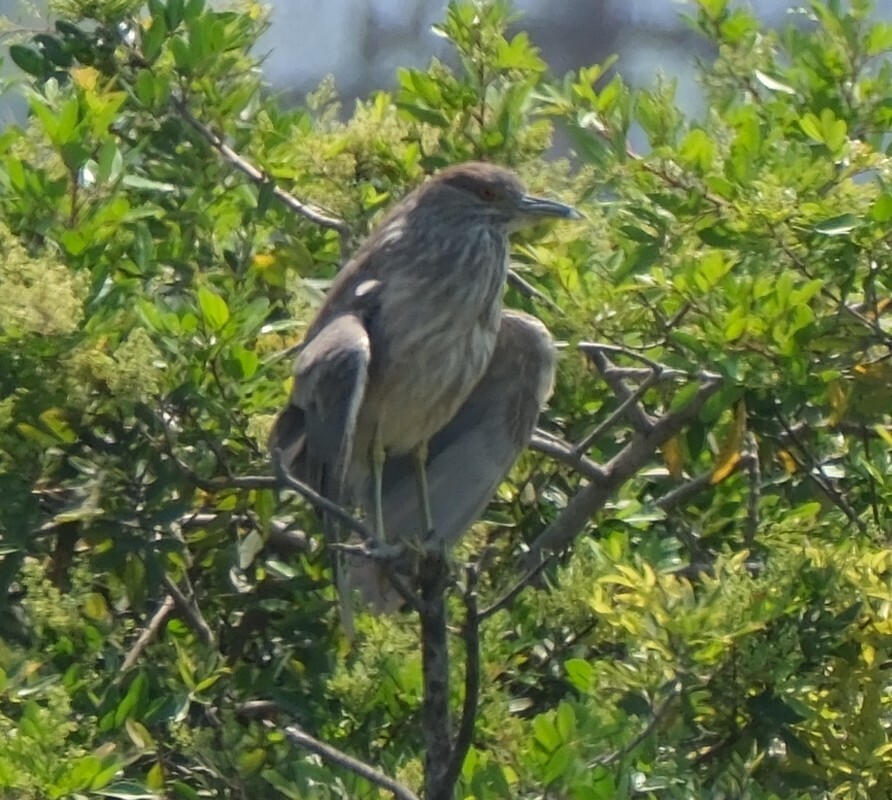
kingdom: Animalia
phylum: Chordata
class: Aves
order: Pelecaniformes
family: Ardeidae
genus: Nycticorax
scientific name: Nycticorax nycticorax
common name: Black-crowned night heron
